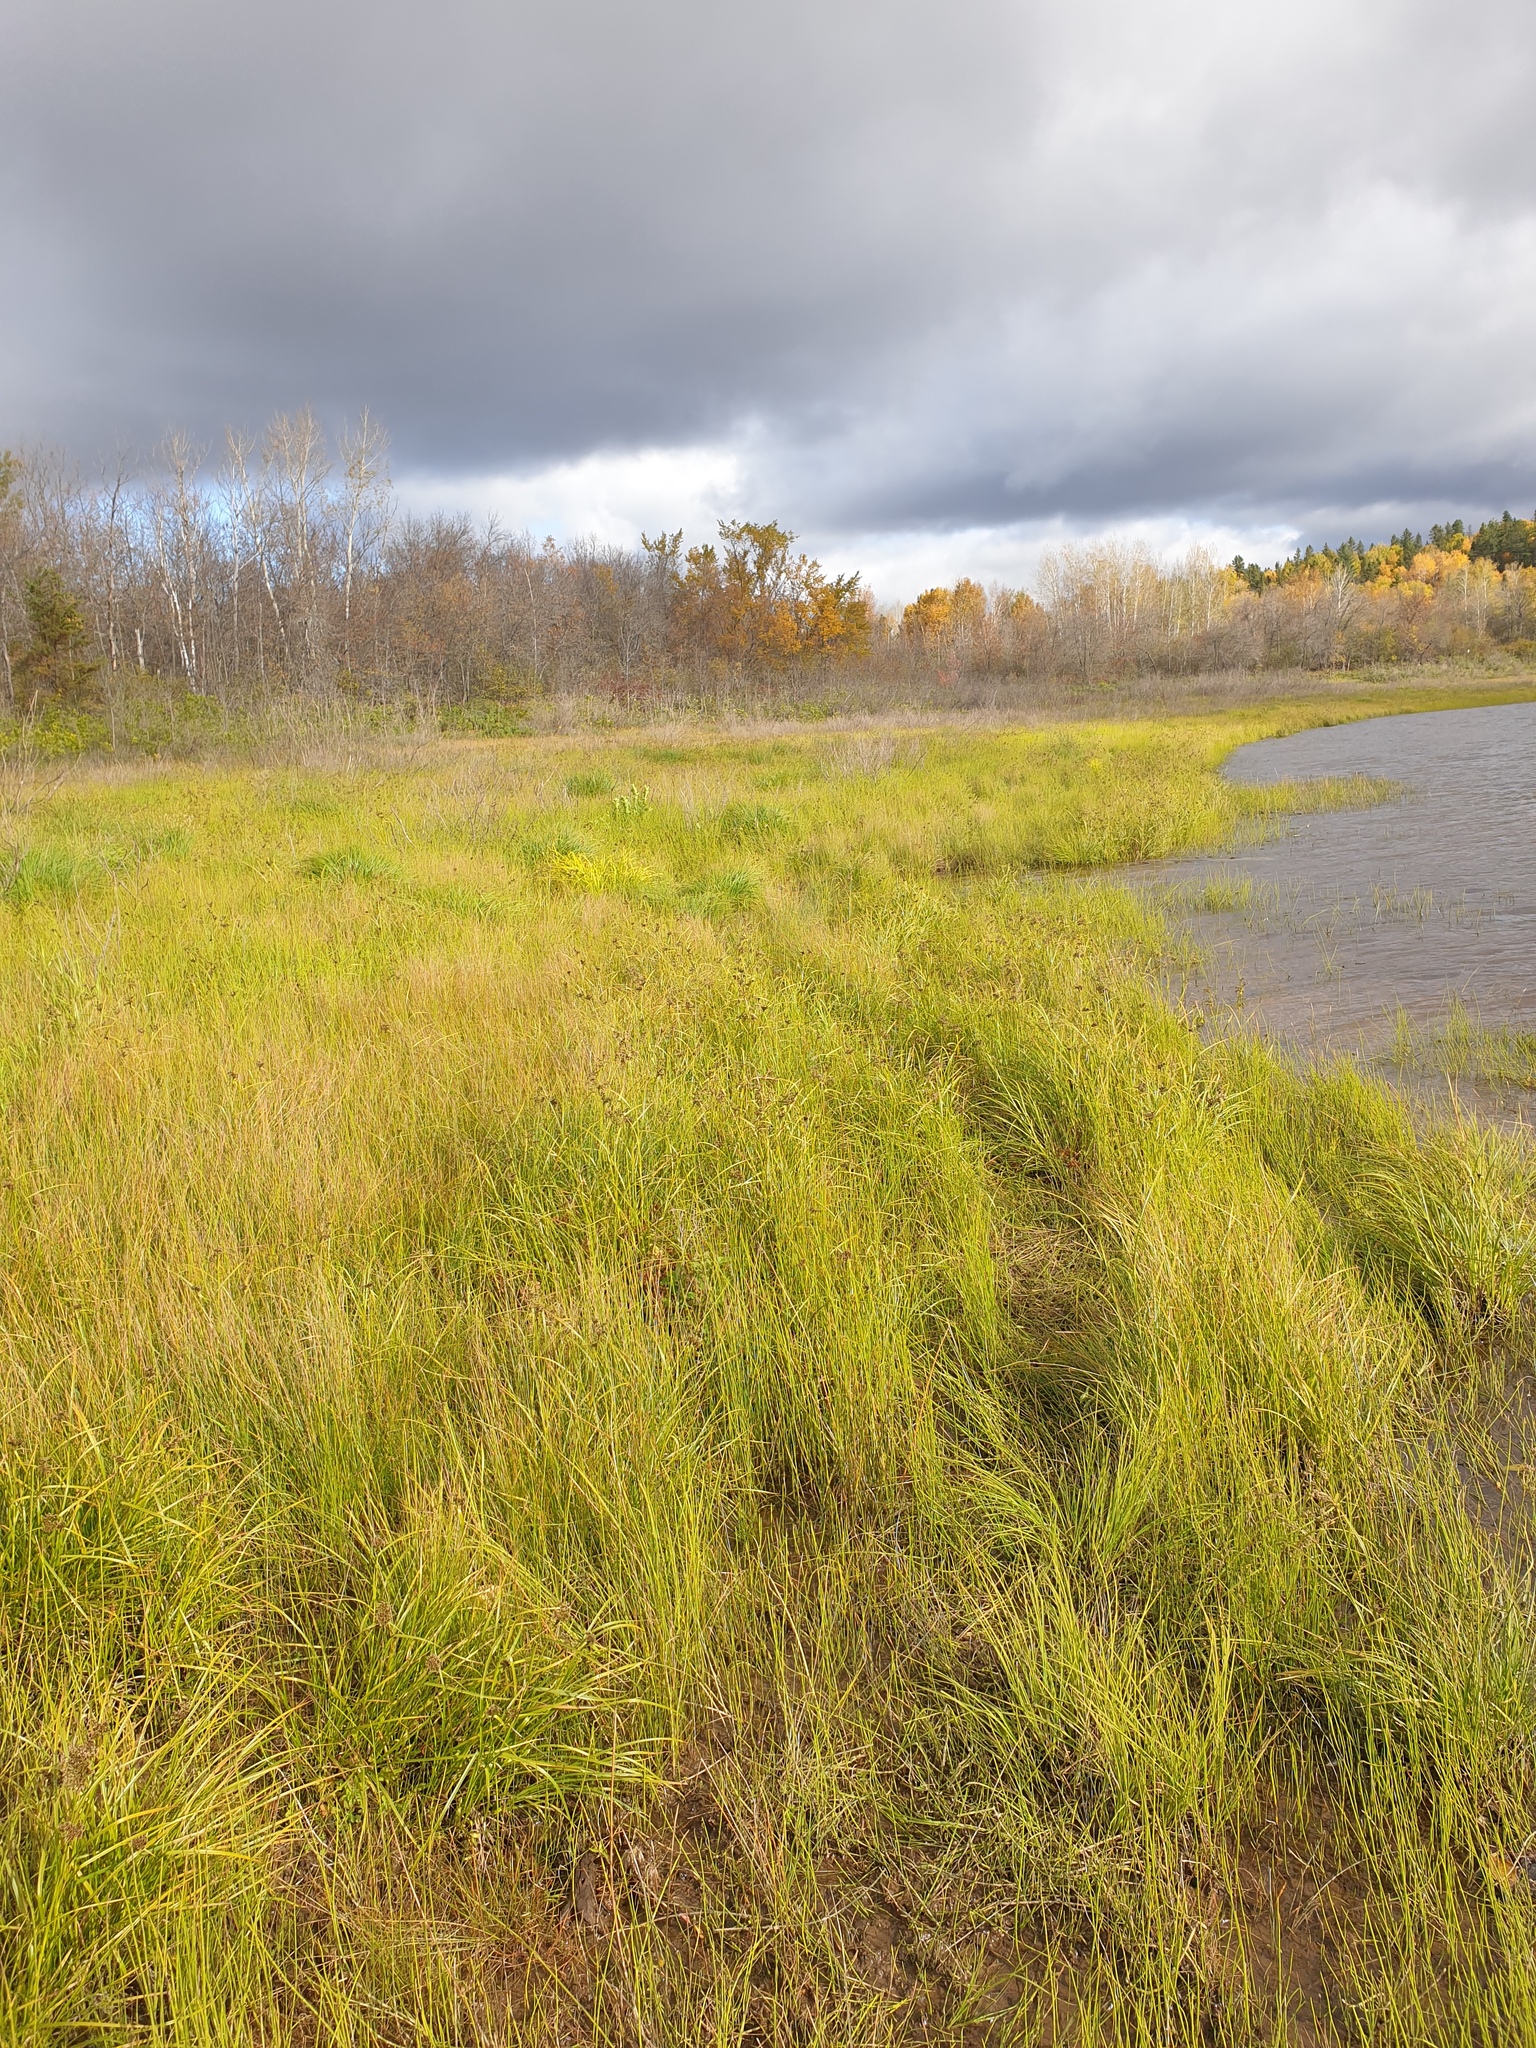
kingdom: Plantae
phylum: Tracheophyta
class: Magnoliopsida
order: Asterales
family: Asteraceae
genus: Bidens
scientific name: Bidens cernua
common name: Nodding bur-marigold
